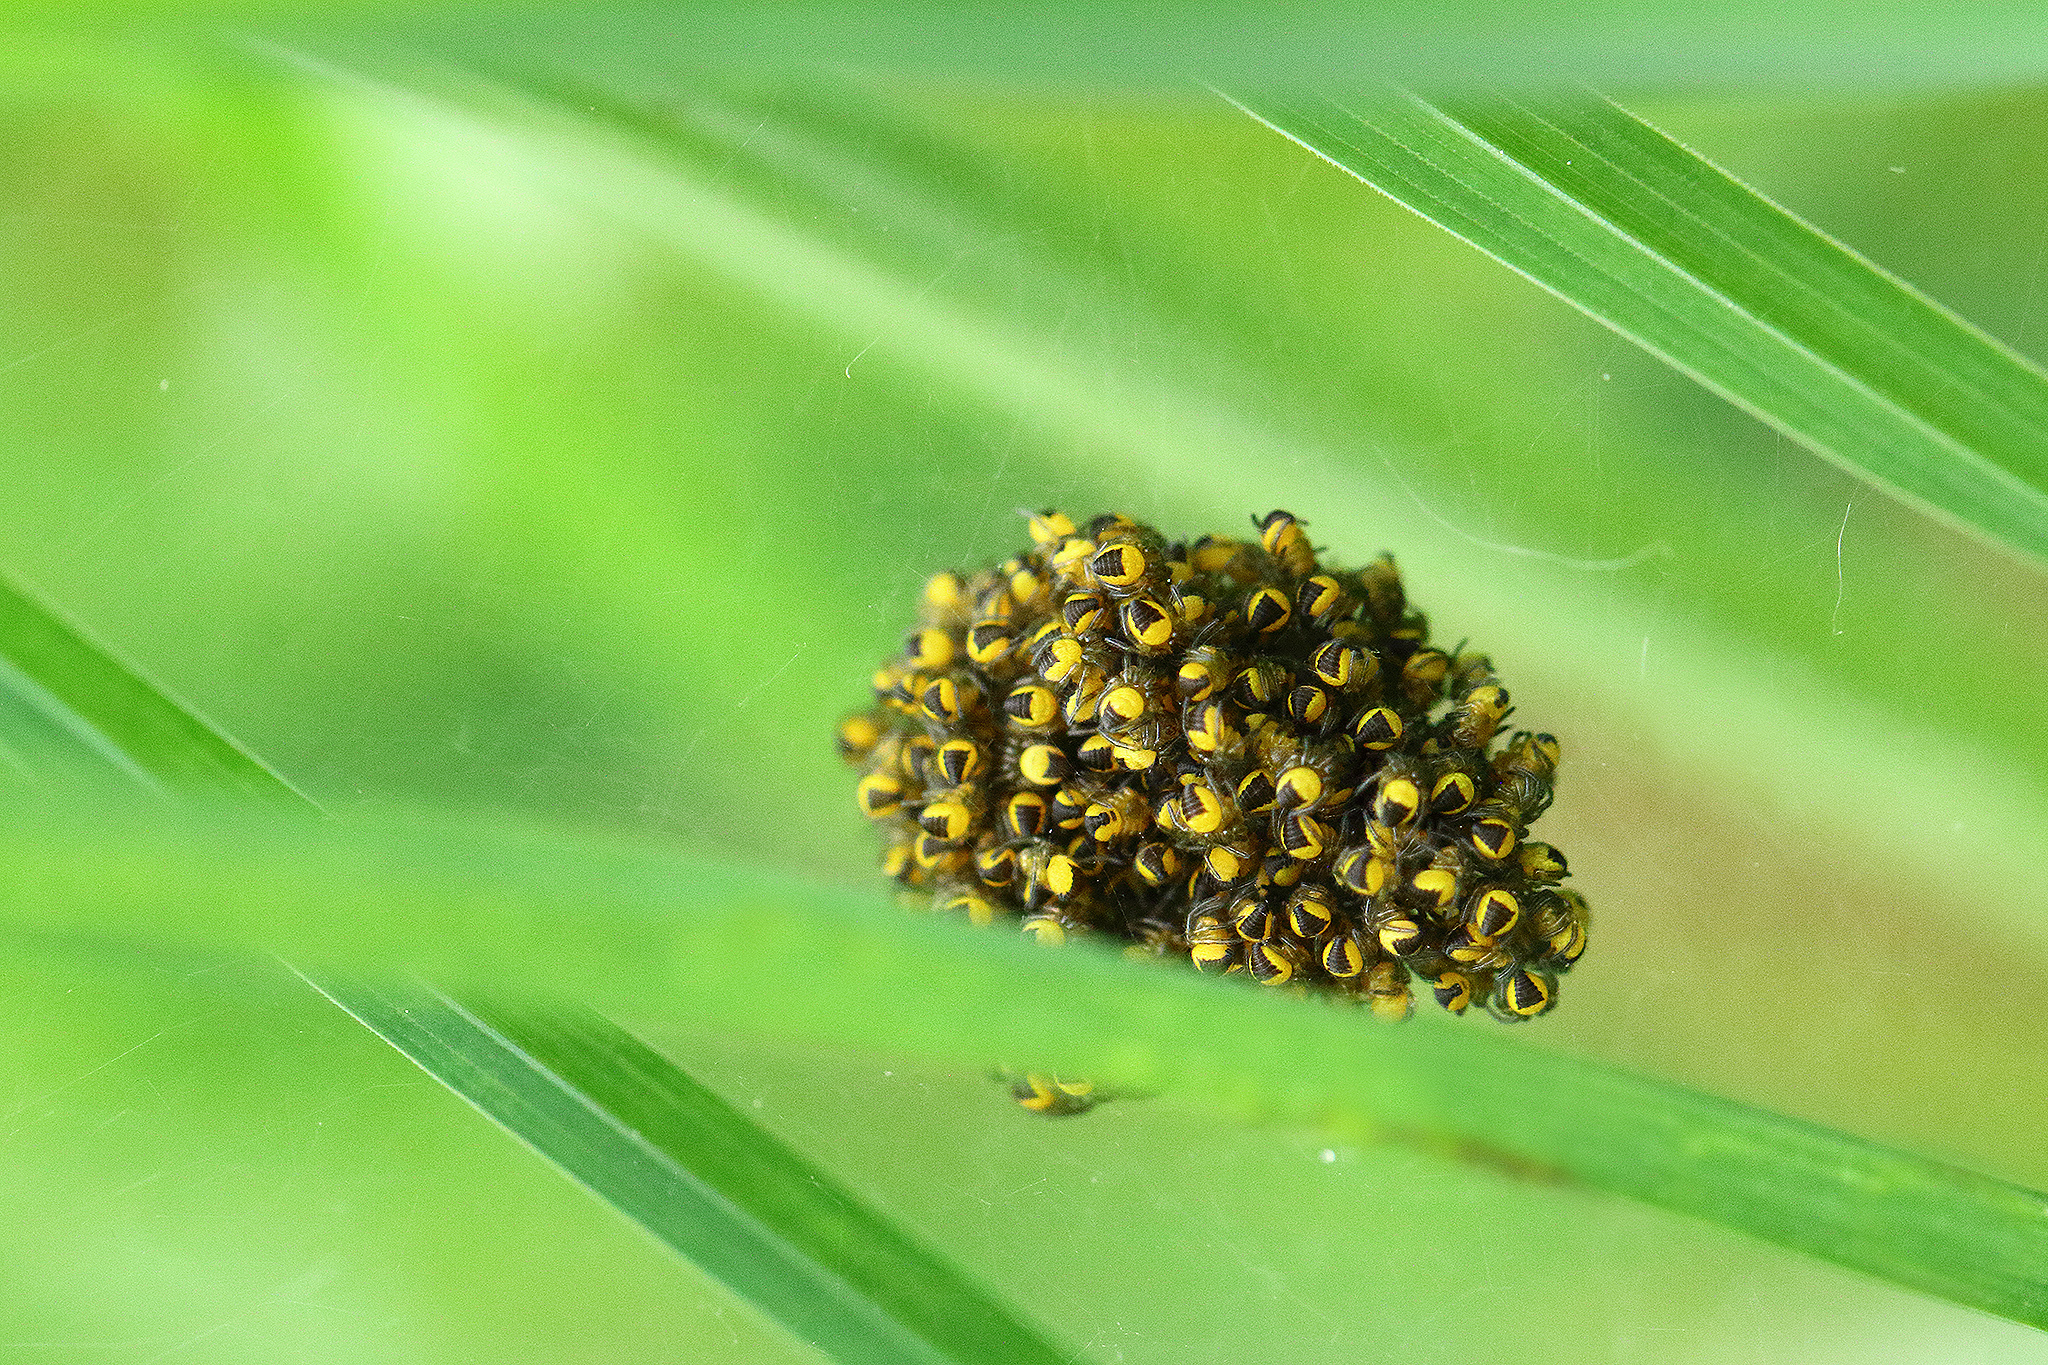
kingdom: Animalia
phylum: Arthropoda
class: Arachnida
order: Araneae
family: Araneidae
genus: Araneus
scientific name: Araneus diadematus
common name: Cross orbweaver
